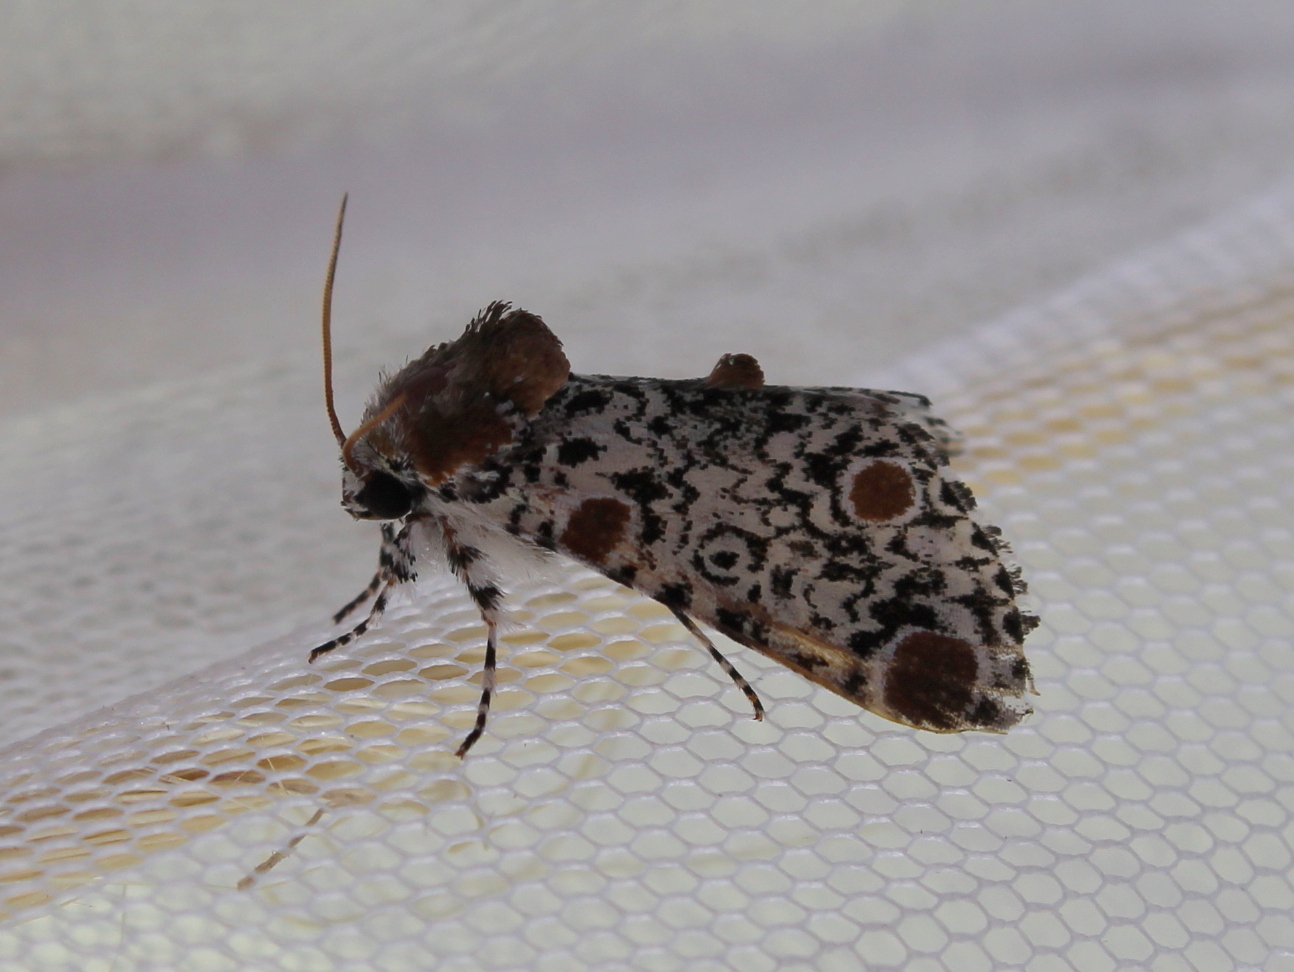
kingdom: Animalia
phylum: Arthropoda
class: Insecta
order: Lepidoptera
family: Noctuidae
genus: Harrisimemna
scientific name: Harrisimemna trisignata
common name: Harris threespot
